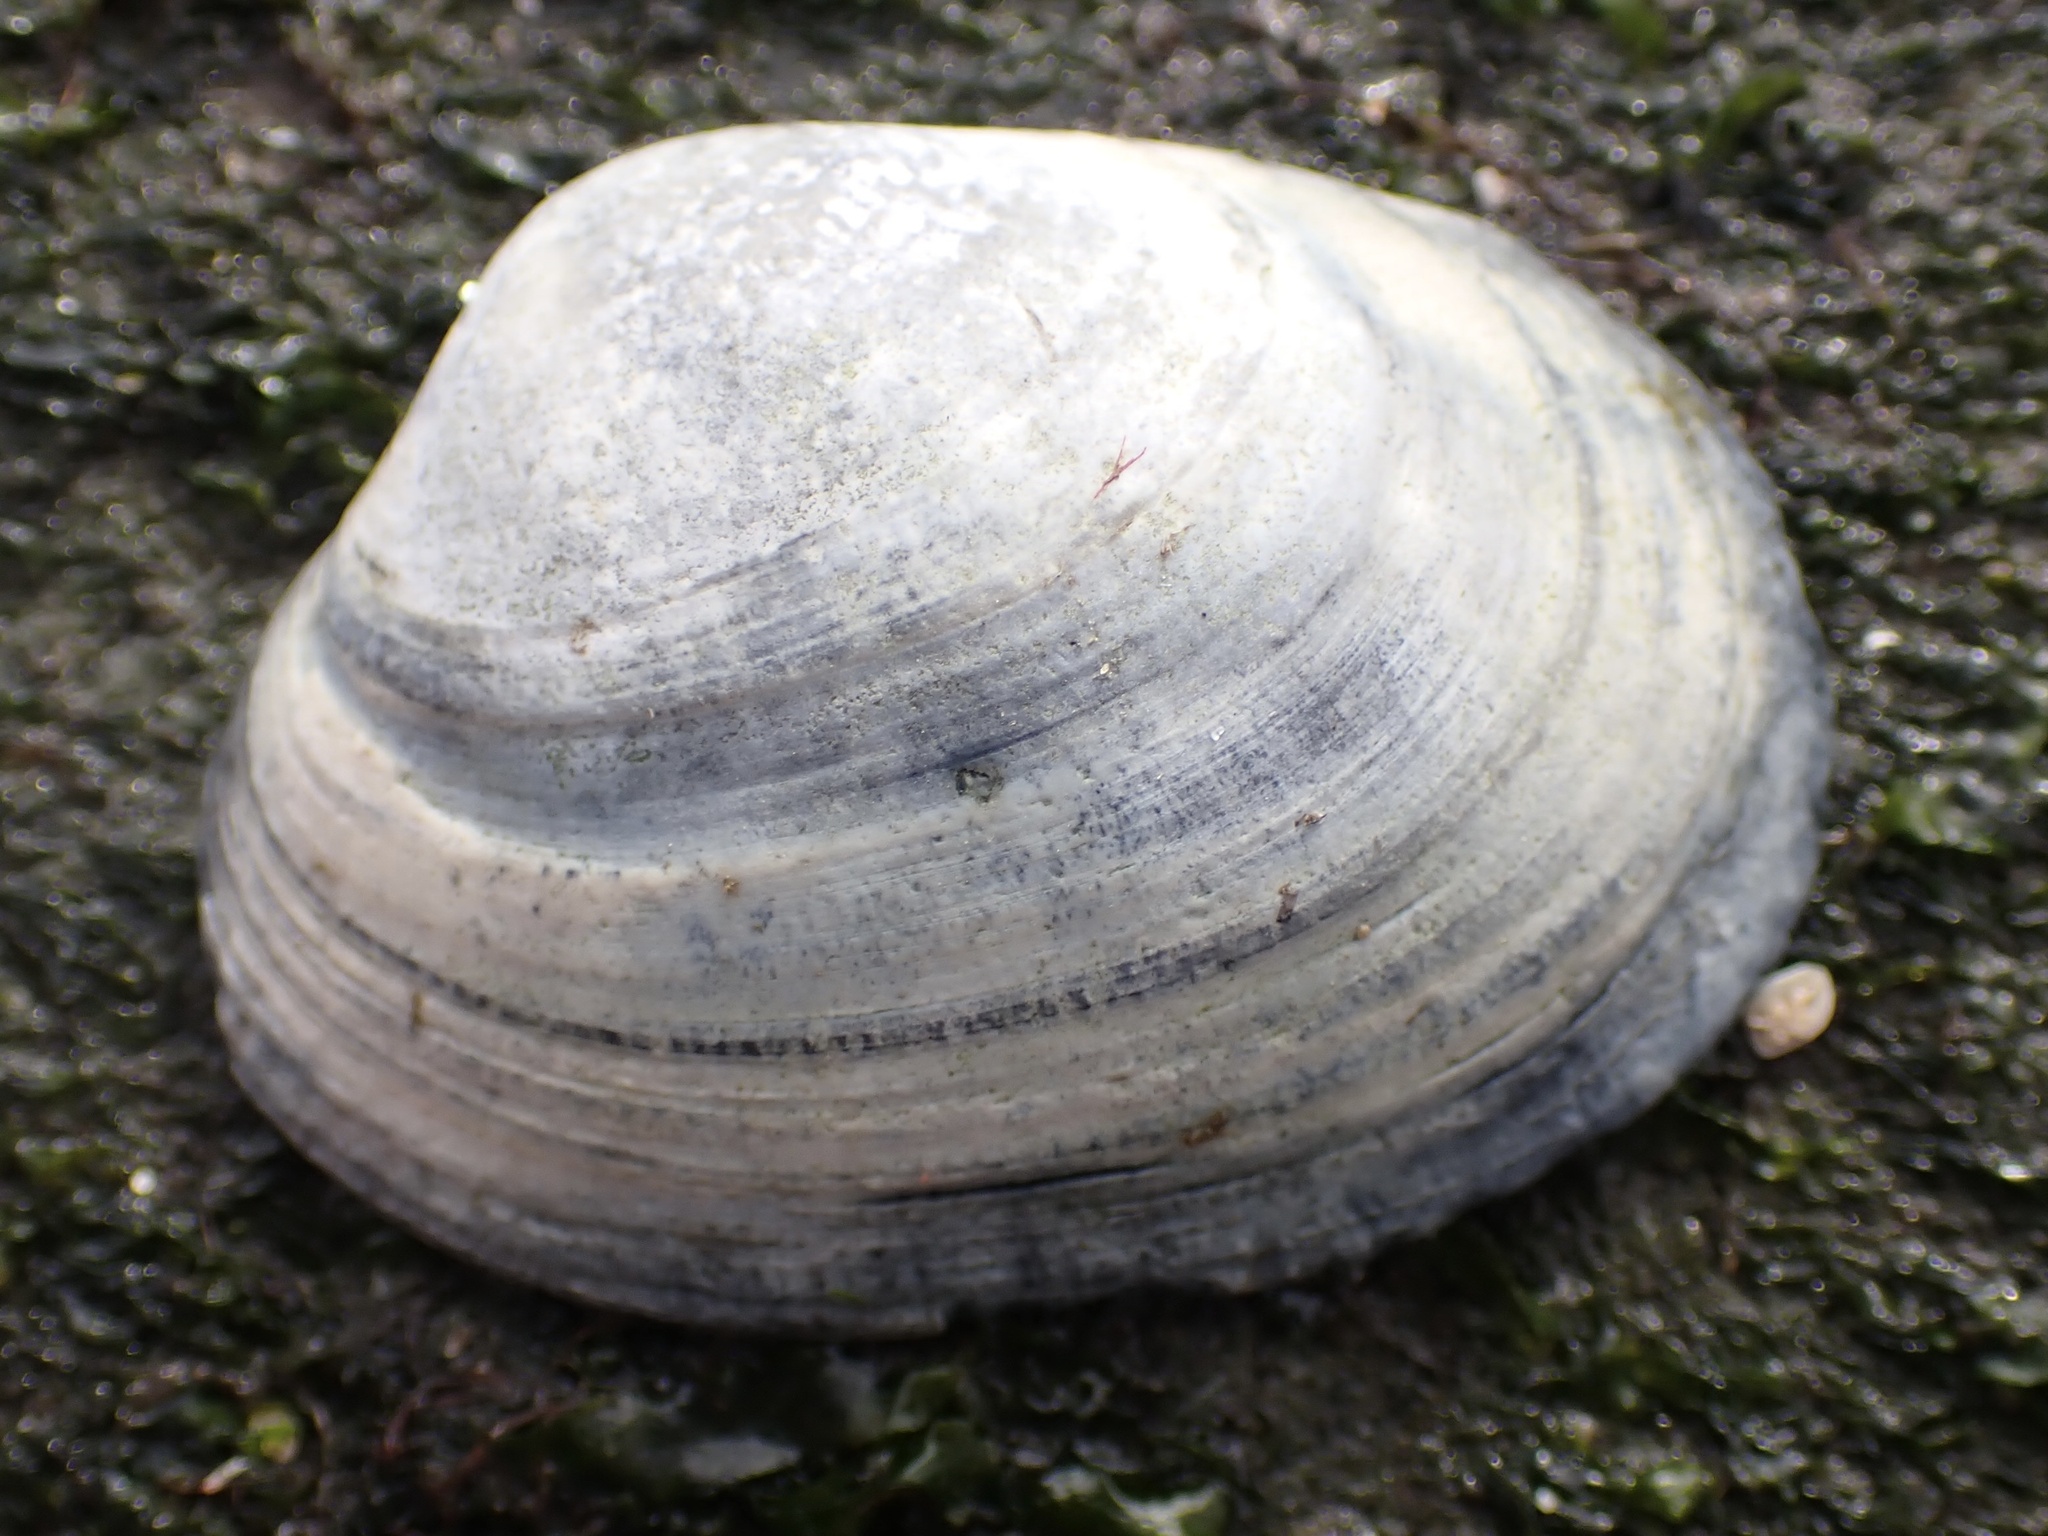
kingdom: Animalia
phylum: Mollusca
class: Bivalvia
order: Venerida
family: Veneridae
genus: Ruditapes
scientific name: Ruditapes philippinarum
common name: Manila clam
